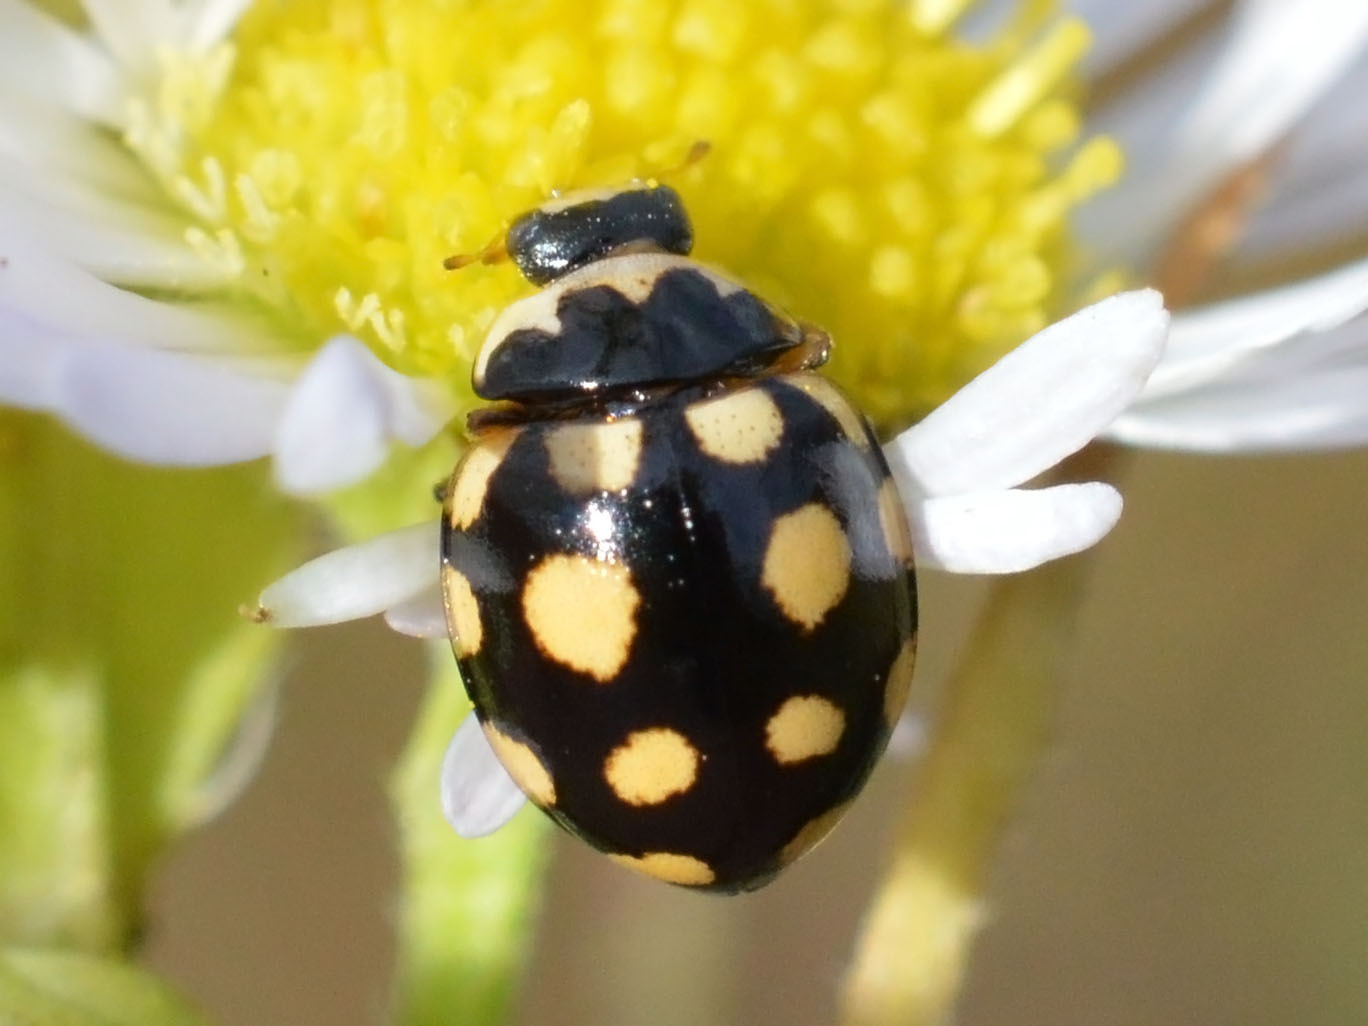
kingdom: Animalia
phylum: Arthropoda
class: Insecta
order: Coleoptera
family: Coccinellidae
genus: Coccinula
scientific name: Coccinula quatuordecimpustulata
